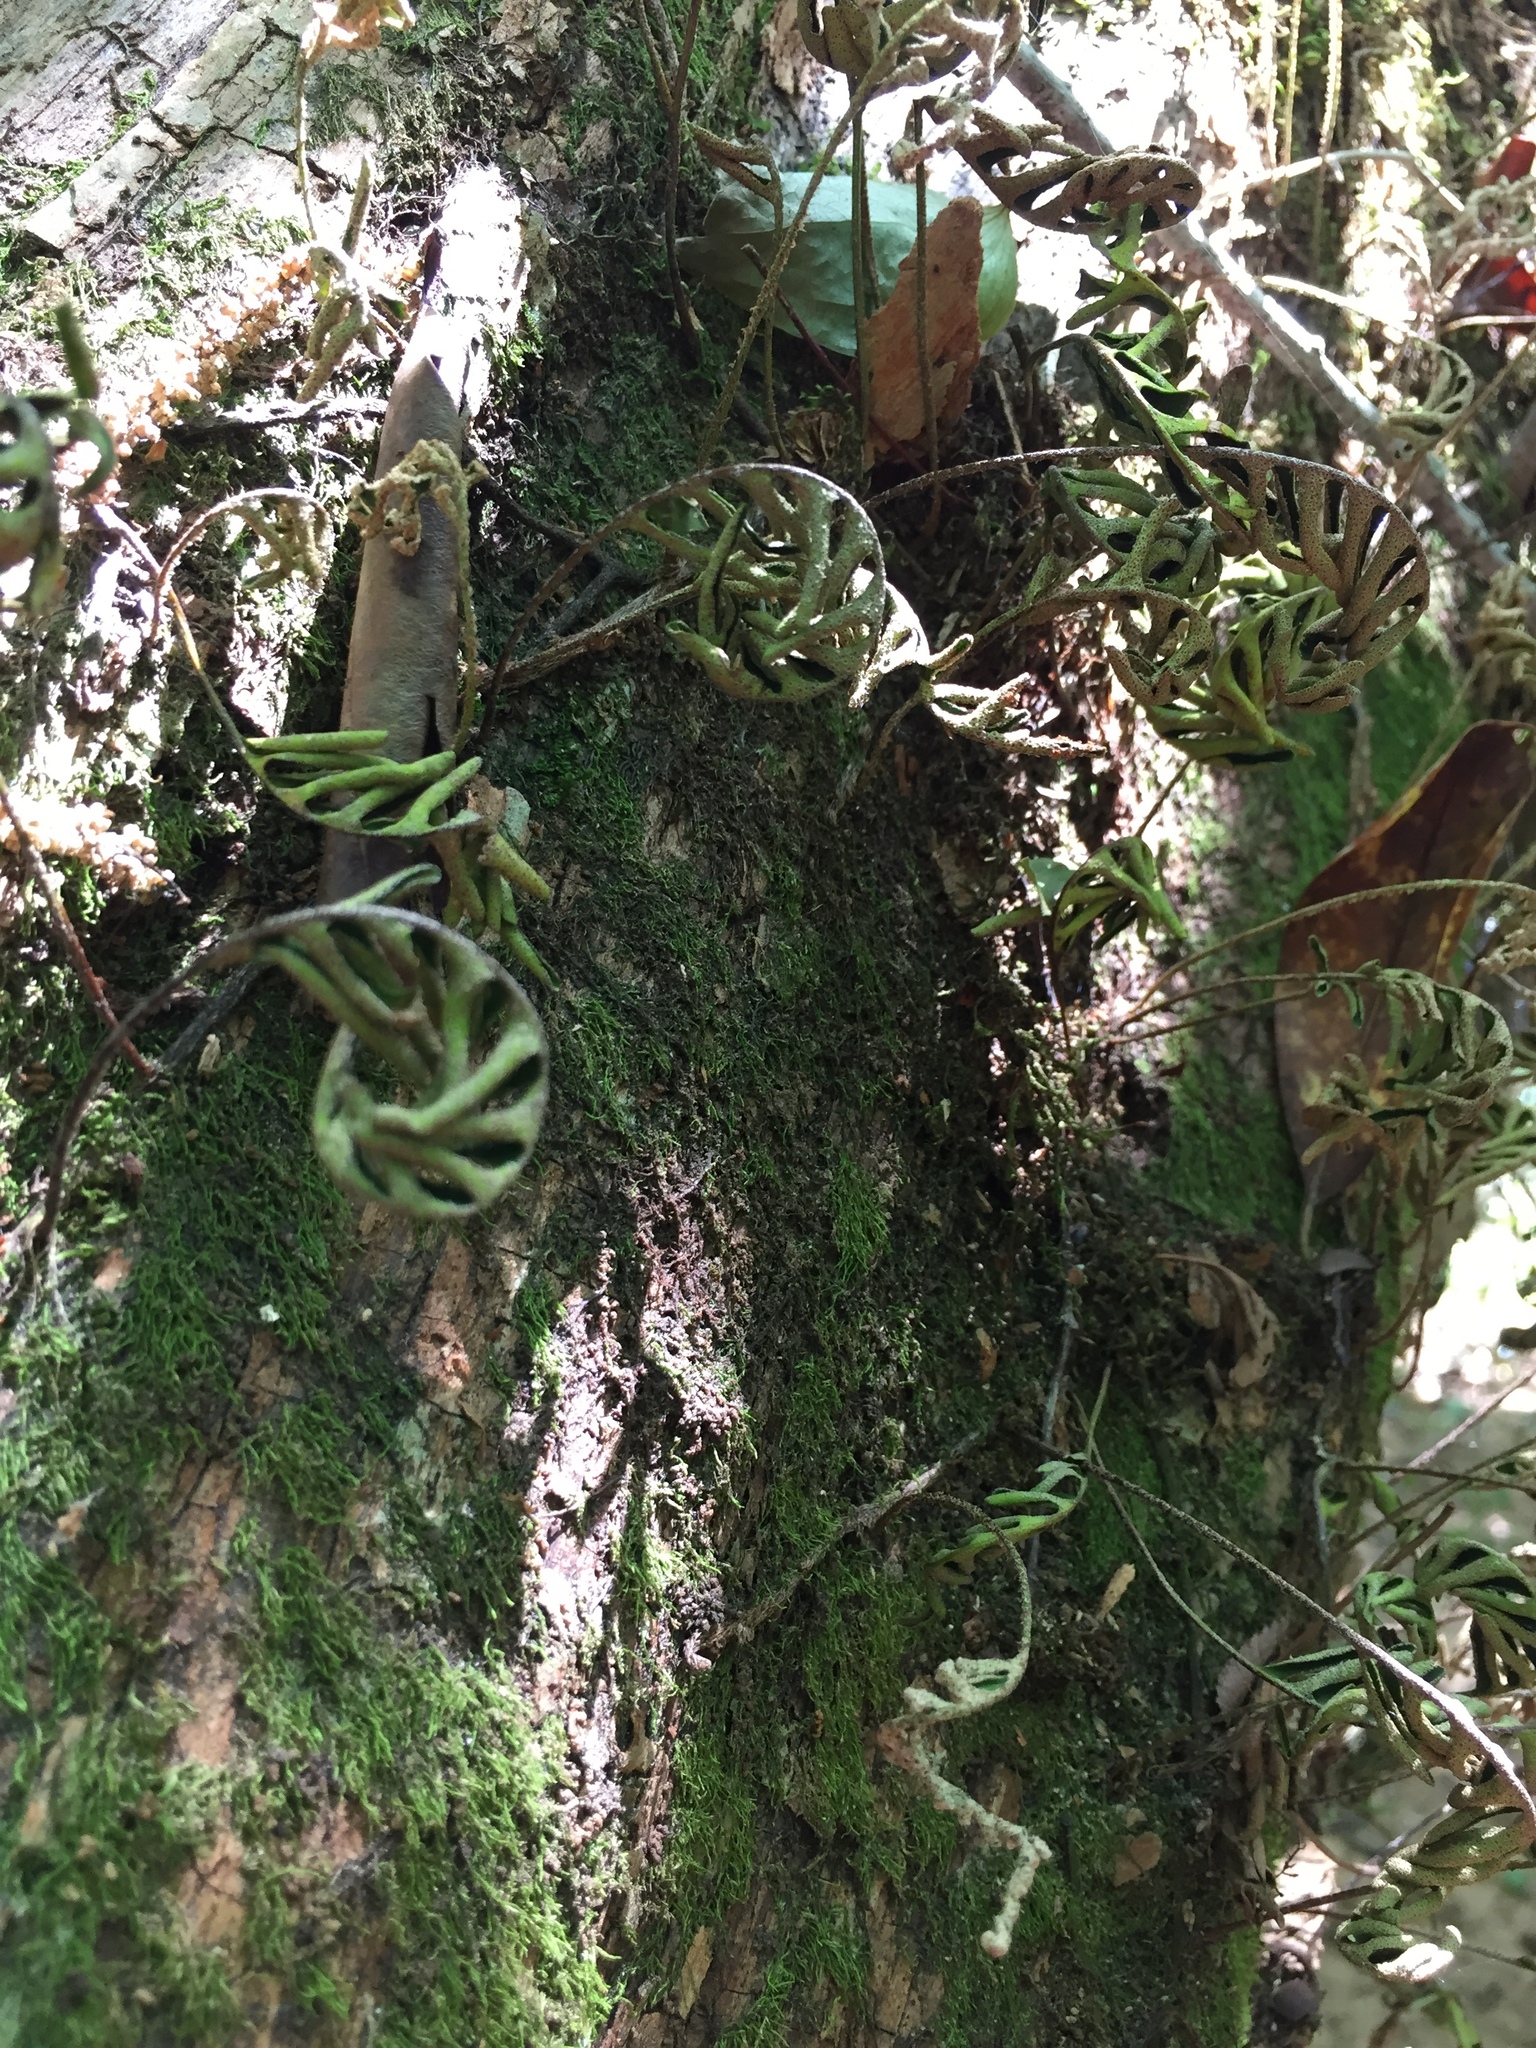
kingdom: Plantae
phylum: Tracheophyta
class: Polypodiopsida
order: Polypodiales
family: Polypodiaceae
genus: Pleopeltis
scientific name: Pleopeltis michauxiana
